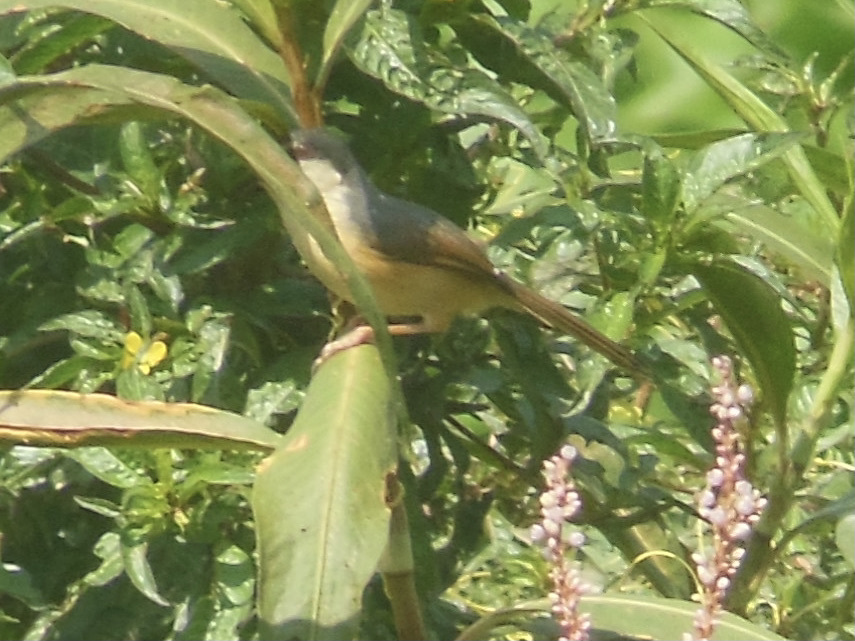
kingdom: Animalia
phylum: Chordata
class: Aves
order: Passeriformes
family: Cisticolidae
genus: Prinia
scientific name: Prinia socialis
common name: Ashy prinia
